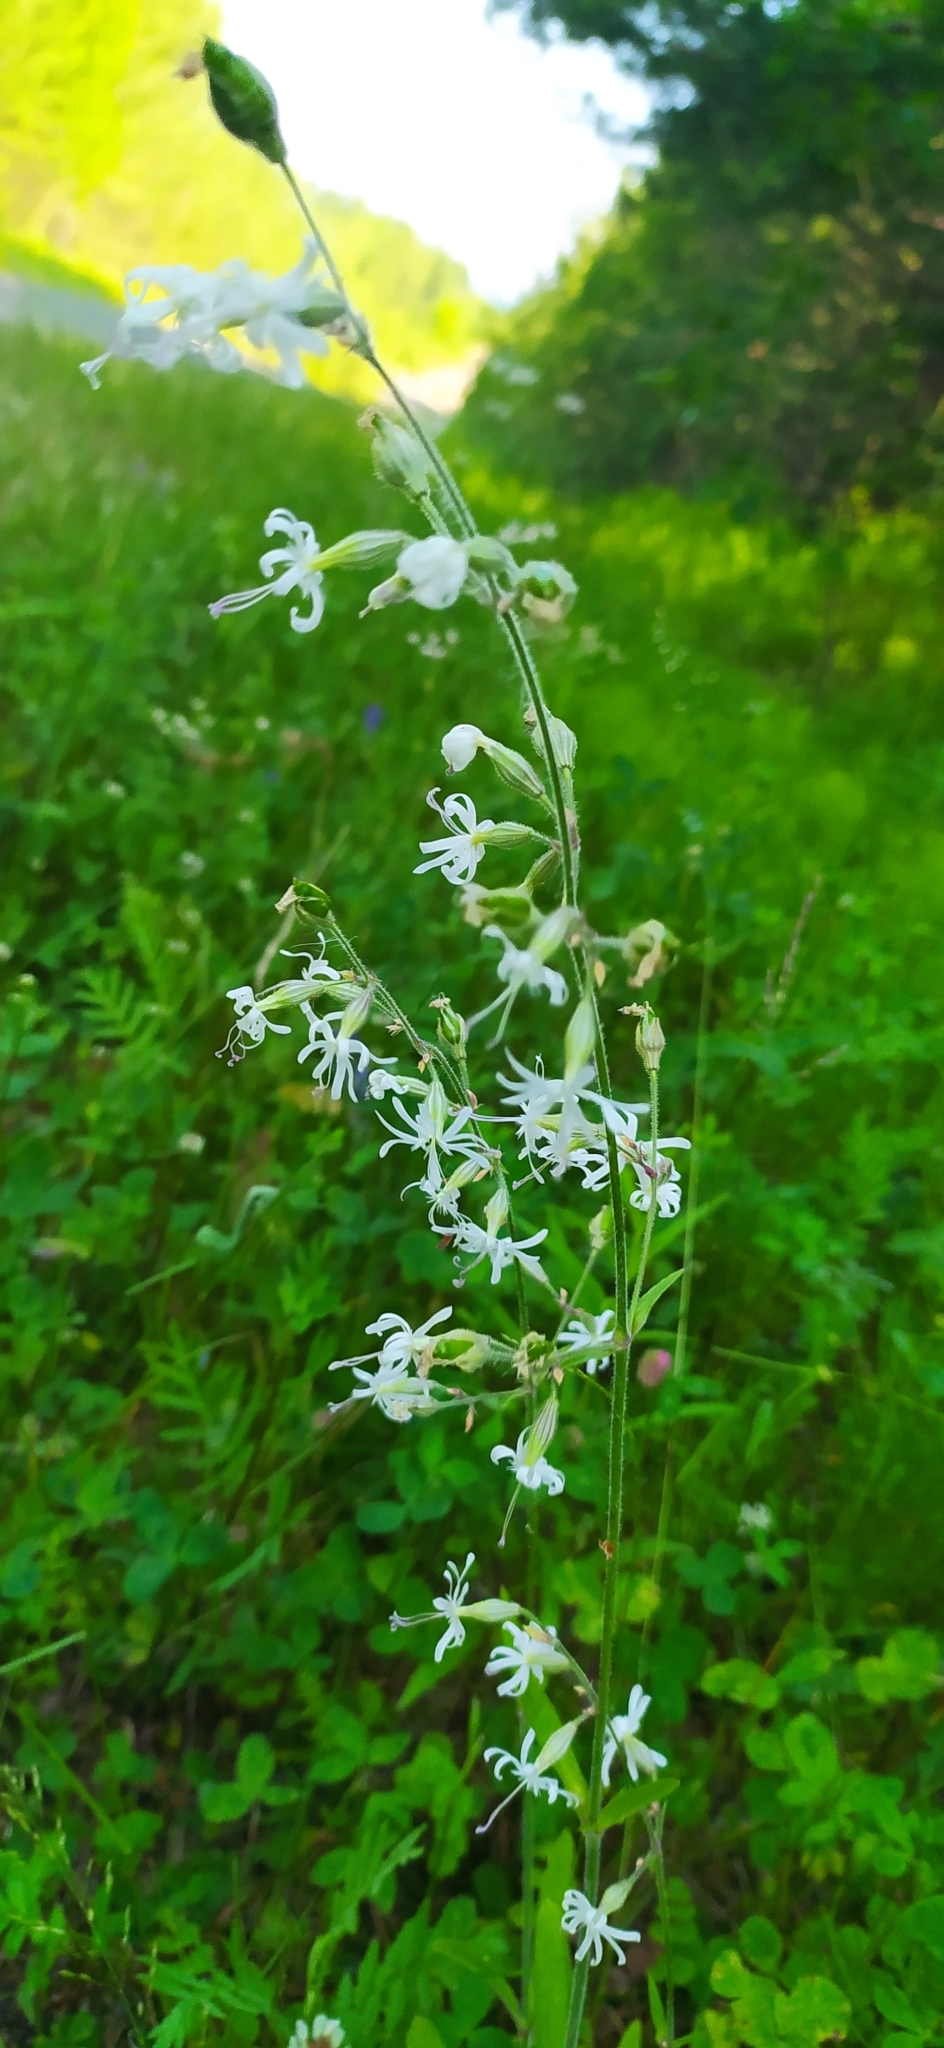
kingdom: Plantae
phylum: Tracheophyta
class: Magnoliopsida
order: Caryophyllales
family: Caryophyllaceae
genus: Silene
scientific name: Silene nutans
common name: Nottingham catchfly
